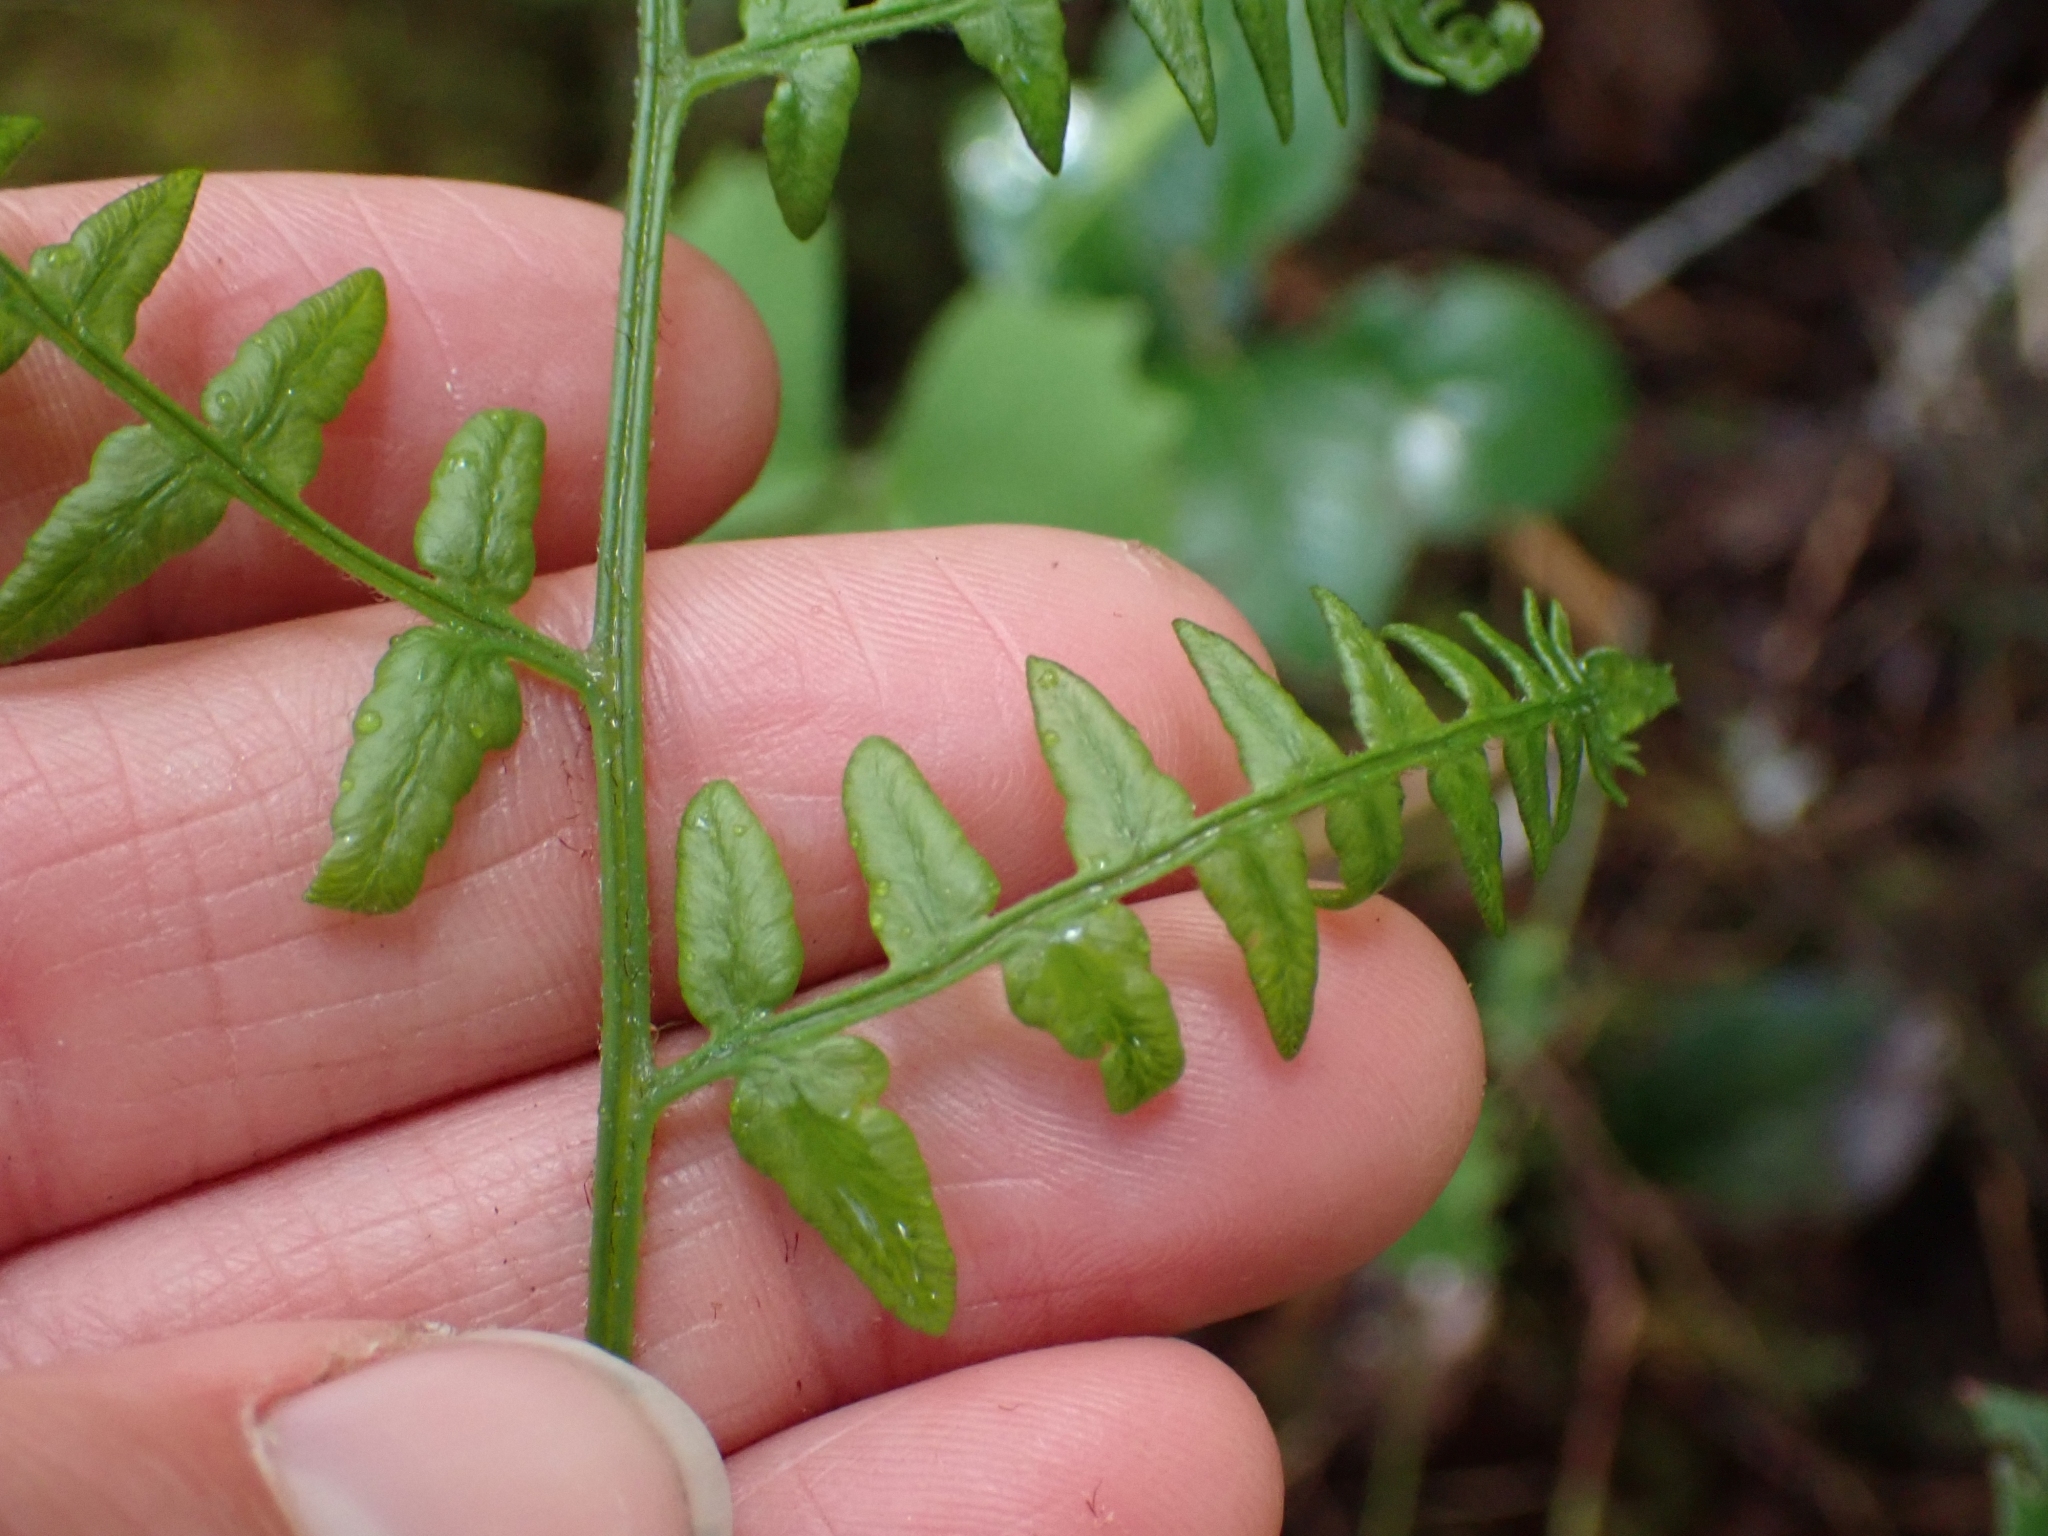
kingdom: Plantae
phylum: Tracheophyta
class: Polypodiopsida
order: Polypodiales
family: Dennstaedtiaceae
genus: Pteridium
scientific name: Pteridium aquilinum
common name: Bracken
